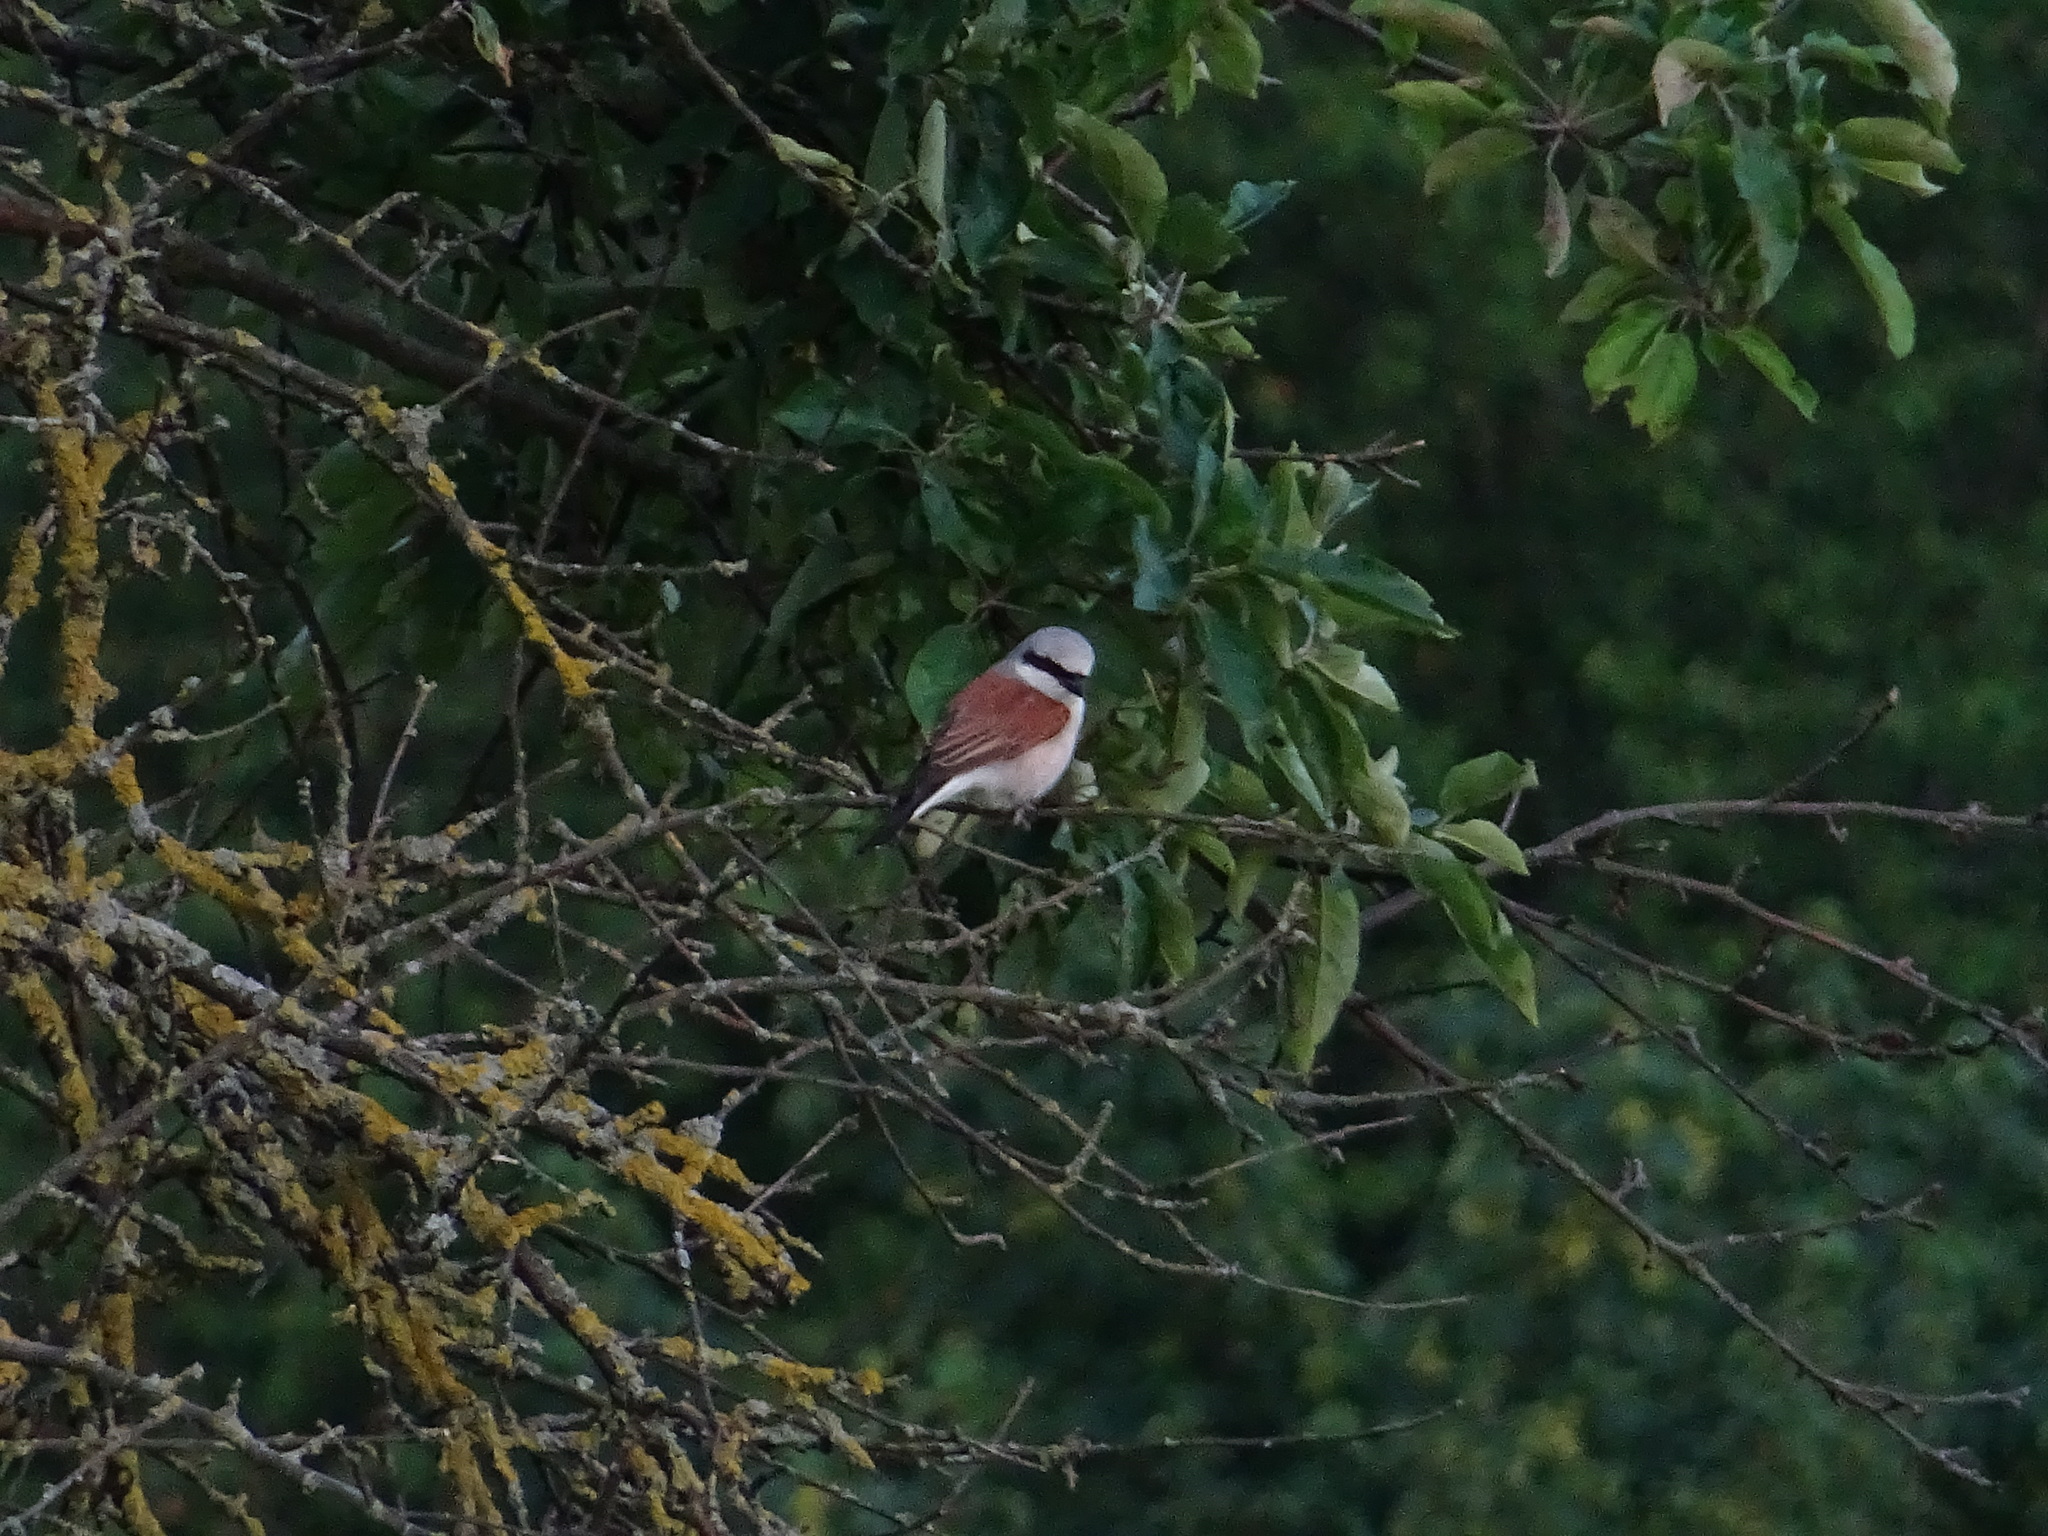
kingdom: Animalia
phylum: Chordata
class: Aves
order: Passeriformes
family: Laniidae
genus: Lanius
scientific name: Lanius collurio
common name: Red-backed shrike
